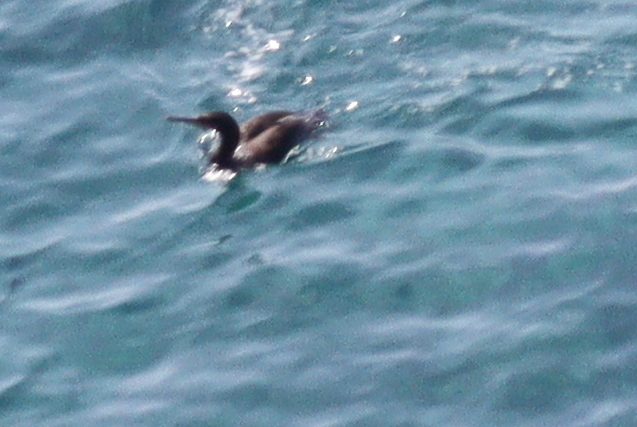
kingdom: Animalia
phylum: Chordata
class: Aves
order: Suliformes
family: Phalacrocoracidae
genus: Phalacrocorax
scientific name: Phalacrocorax aristotelis
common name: European shag
